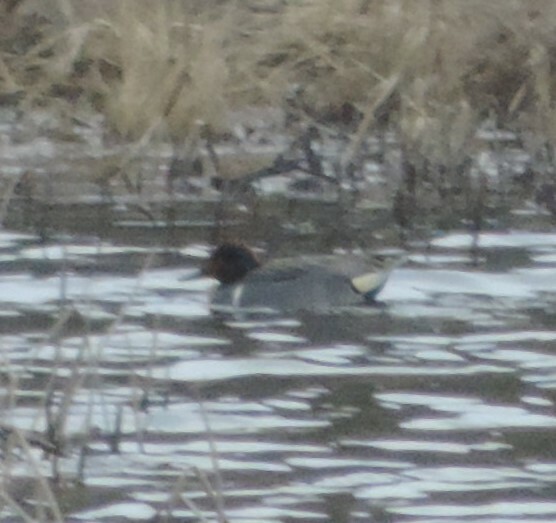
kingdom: Animalia
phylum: Chordata
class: Aves
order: Anseriformes
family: Anatidae
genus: Anas
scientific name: Anas crecca
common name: Eurasian teal
